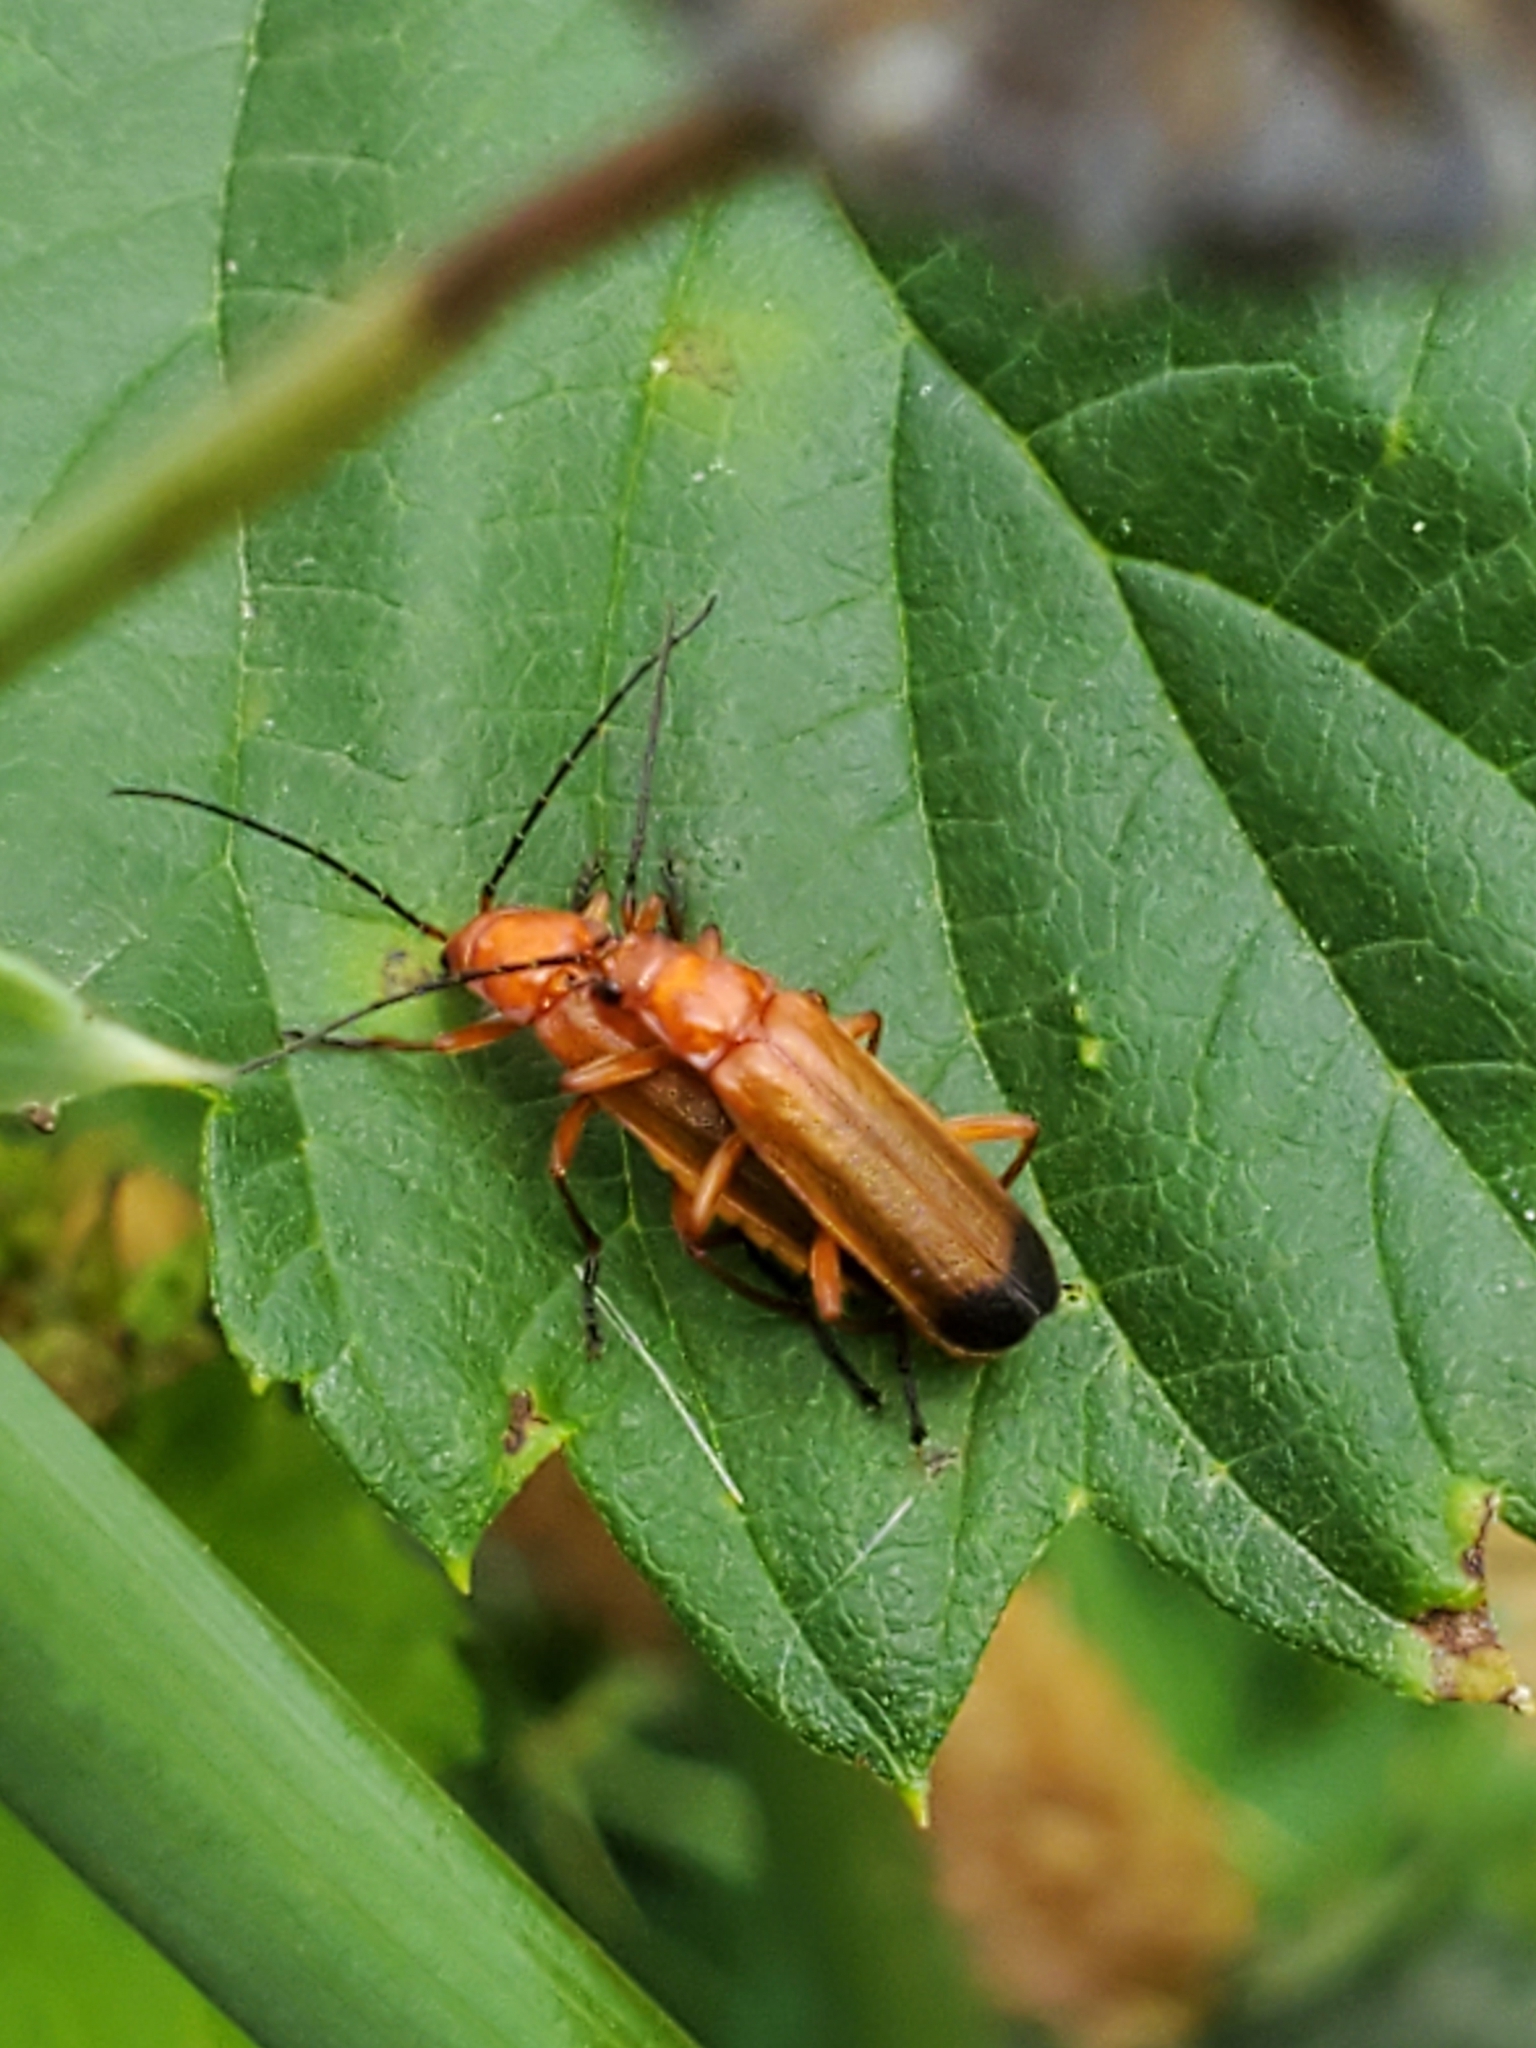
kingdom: Animalia
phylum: Arthropoda
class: Insecta
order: Coleoptera
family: Cantharidae
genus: Rhagonycha
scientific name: Rhagonycha fulva
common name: Common red soldier beetle
